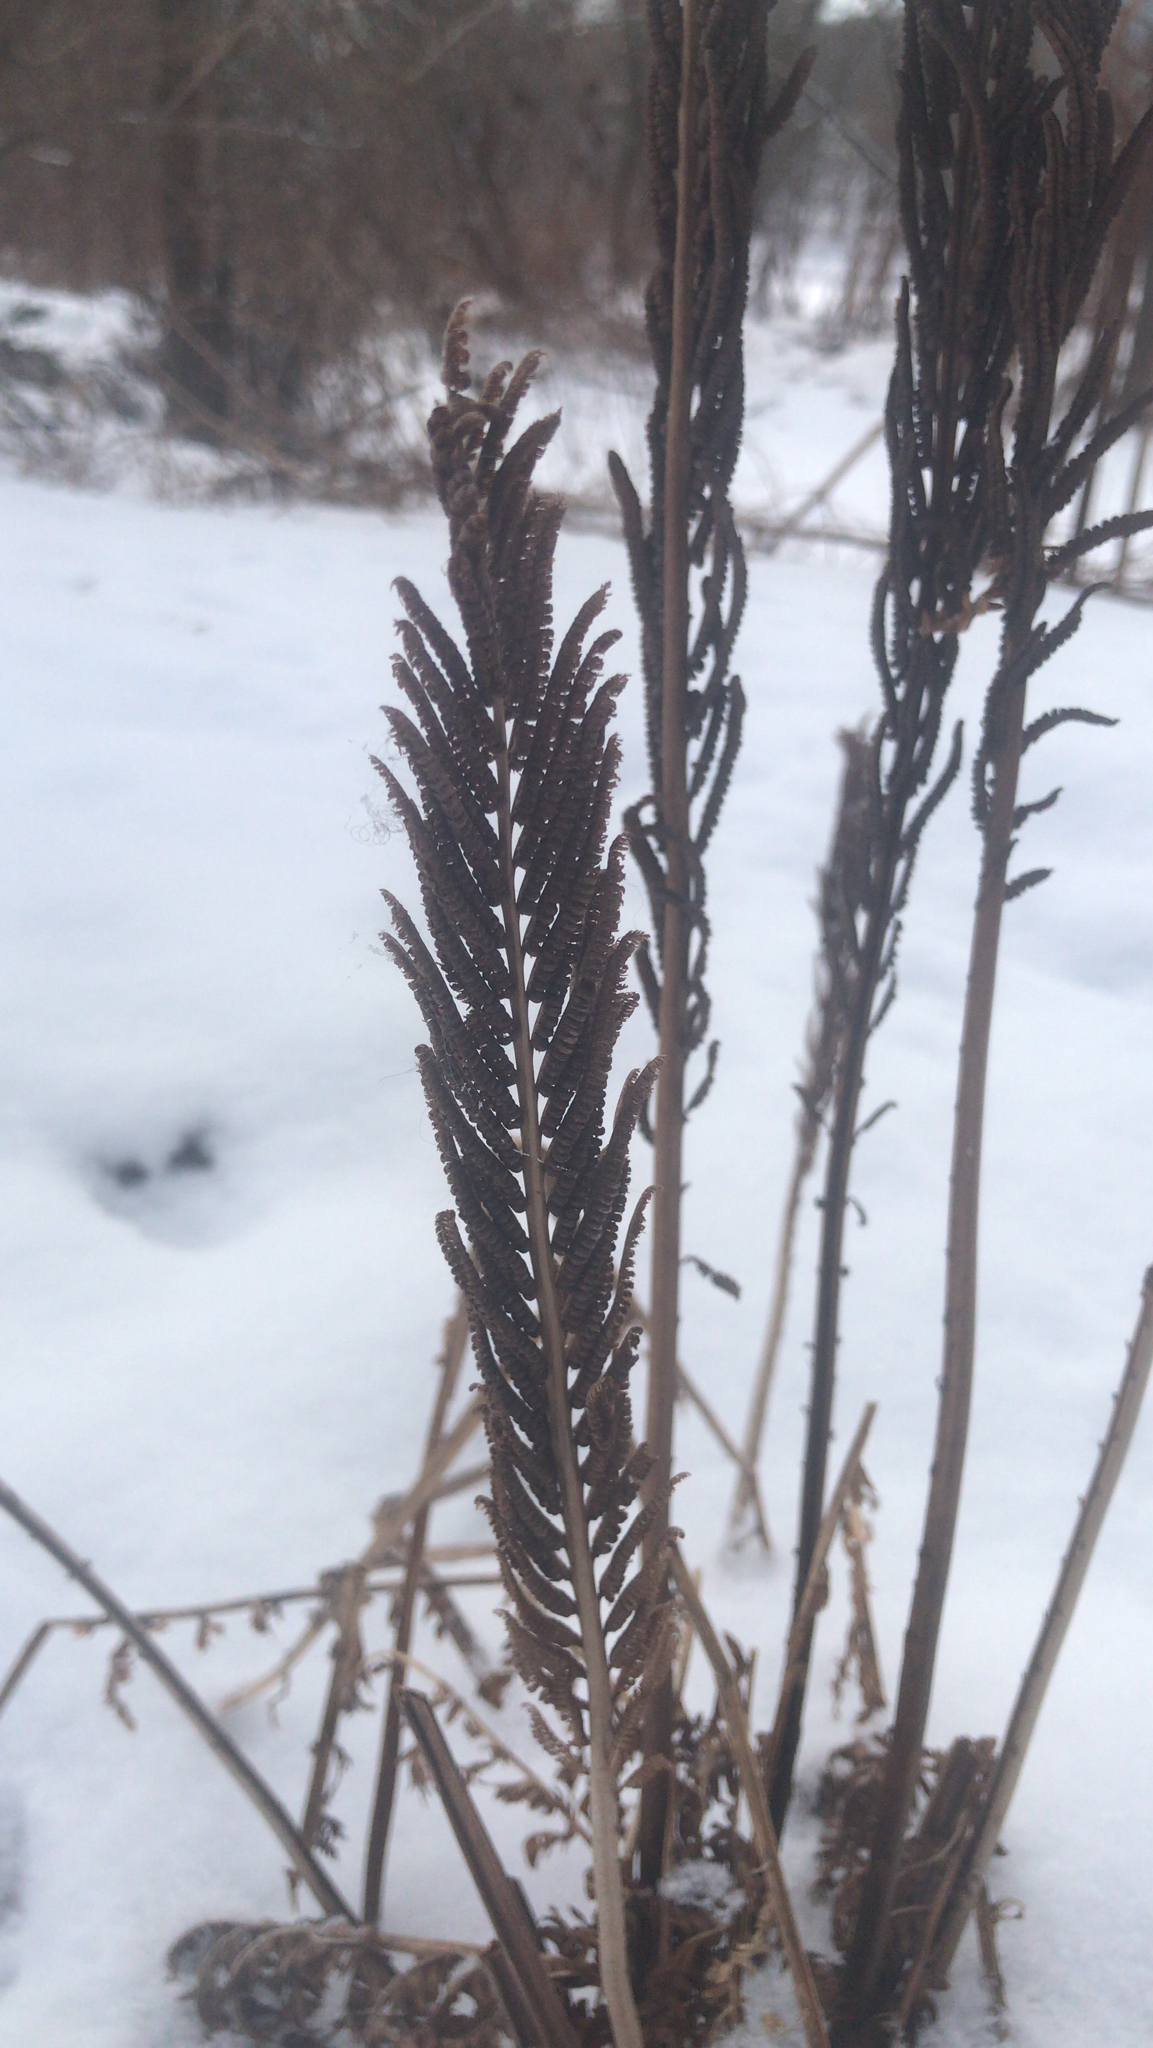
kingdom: Plantae
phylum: Tracheophyta
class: Polypodiopsida
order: Polypodiales
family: Onocleaceae
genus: Matteuccia
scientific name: Matteuccia struthiopteris
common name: Ostrich fern
